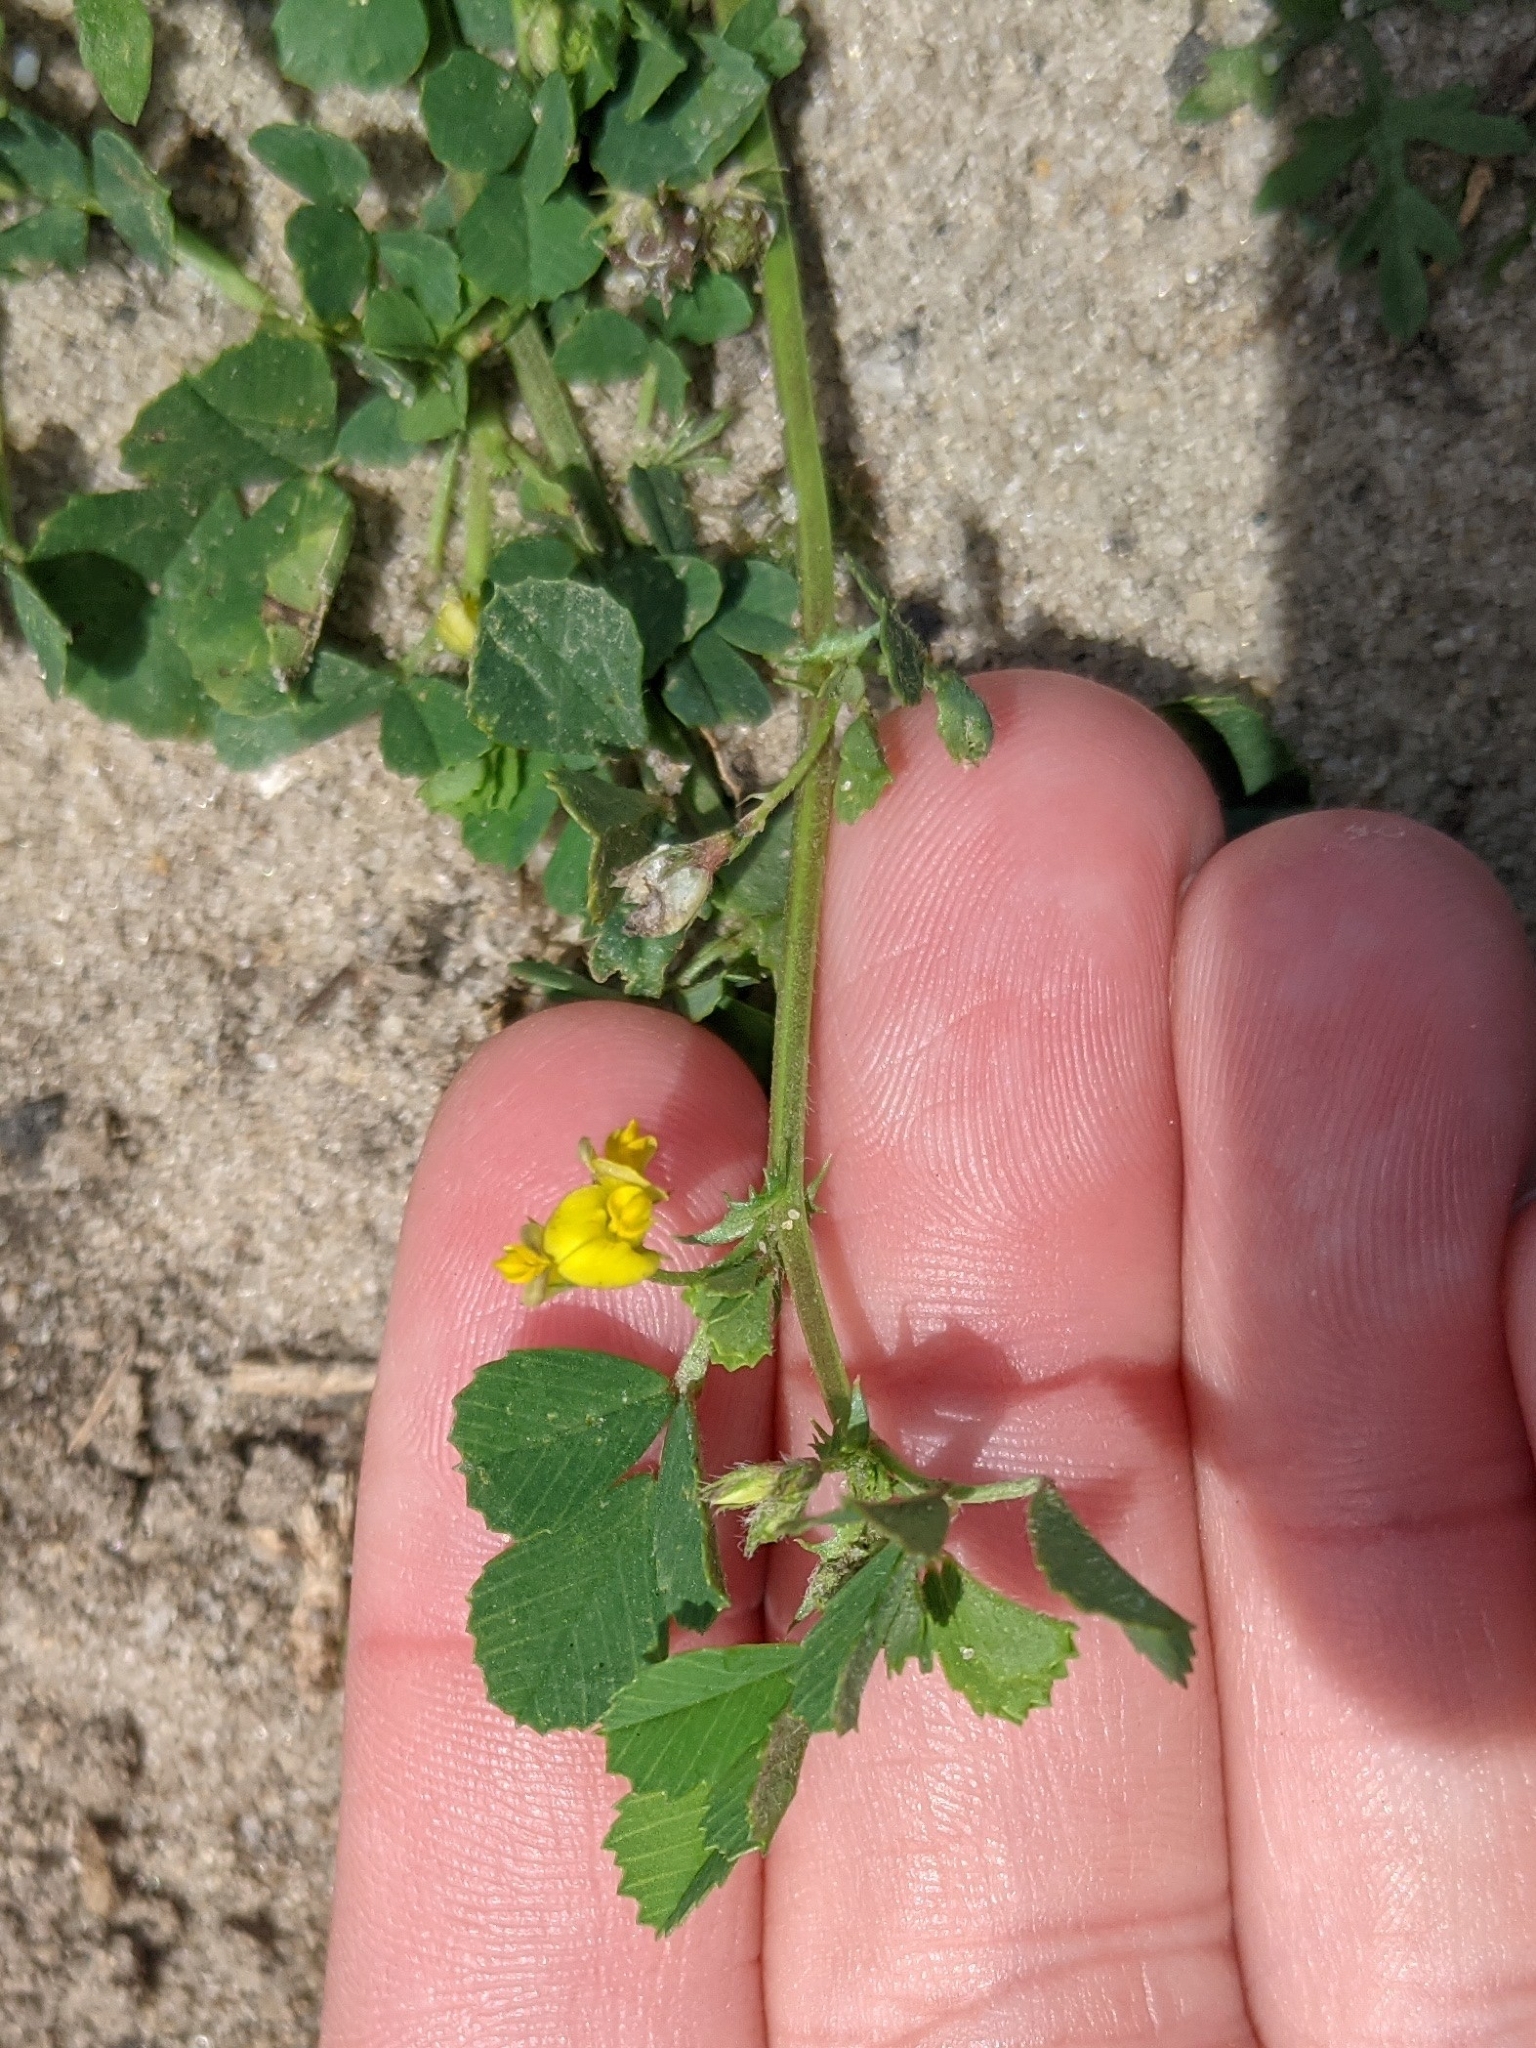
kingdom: Plantae
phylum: Tracheophyta
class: Magnoliopsida
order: Fabales
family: Fabaceae
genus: Medicago
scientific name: Medicago littoralis
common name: Shore medick
